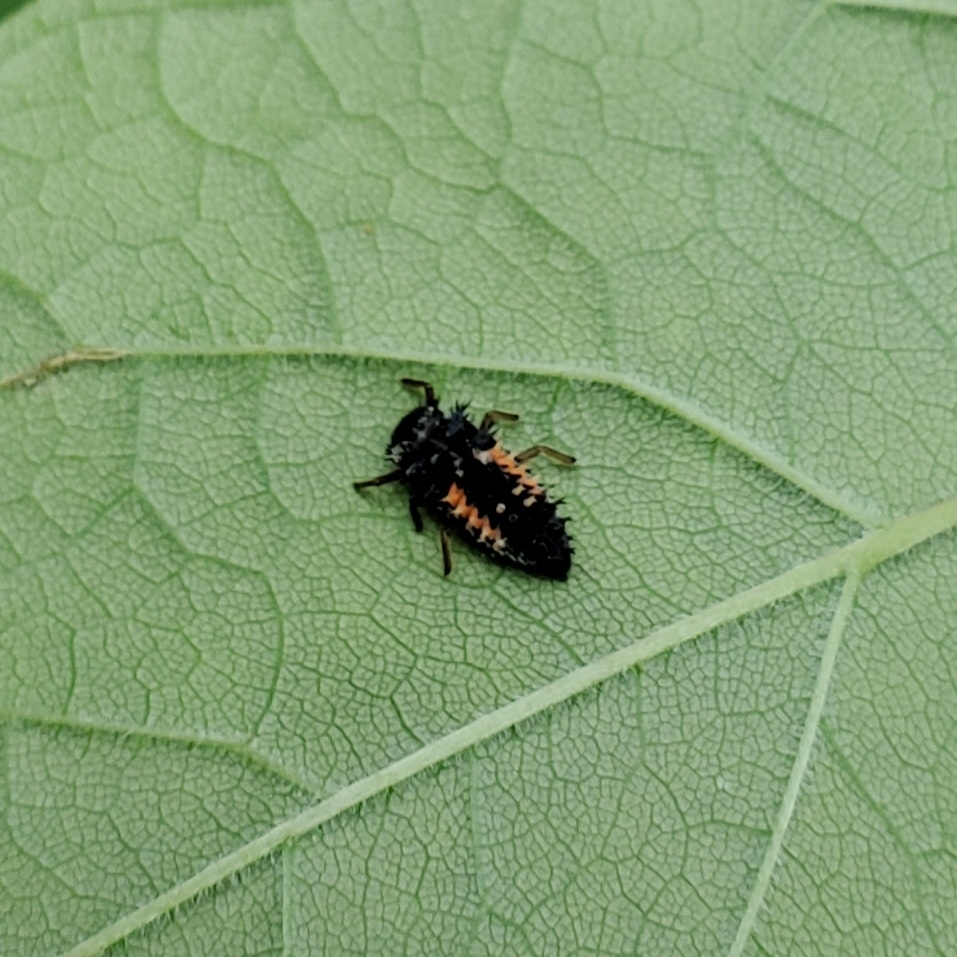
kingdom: Animalia
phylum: Arthropoda
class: Insecta
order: Coleoptera
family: Coccinellidae
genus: Harmonia
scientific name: Harmonia axyridis
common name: Harlequin ladybird
